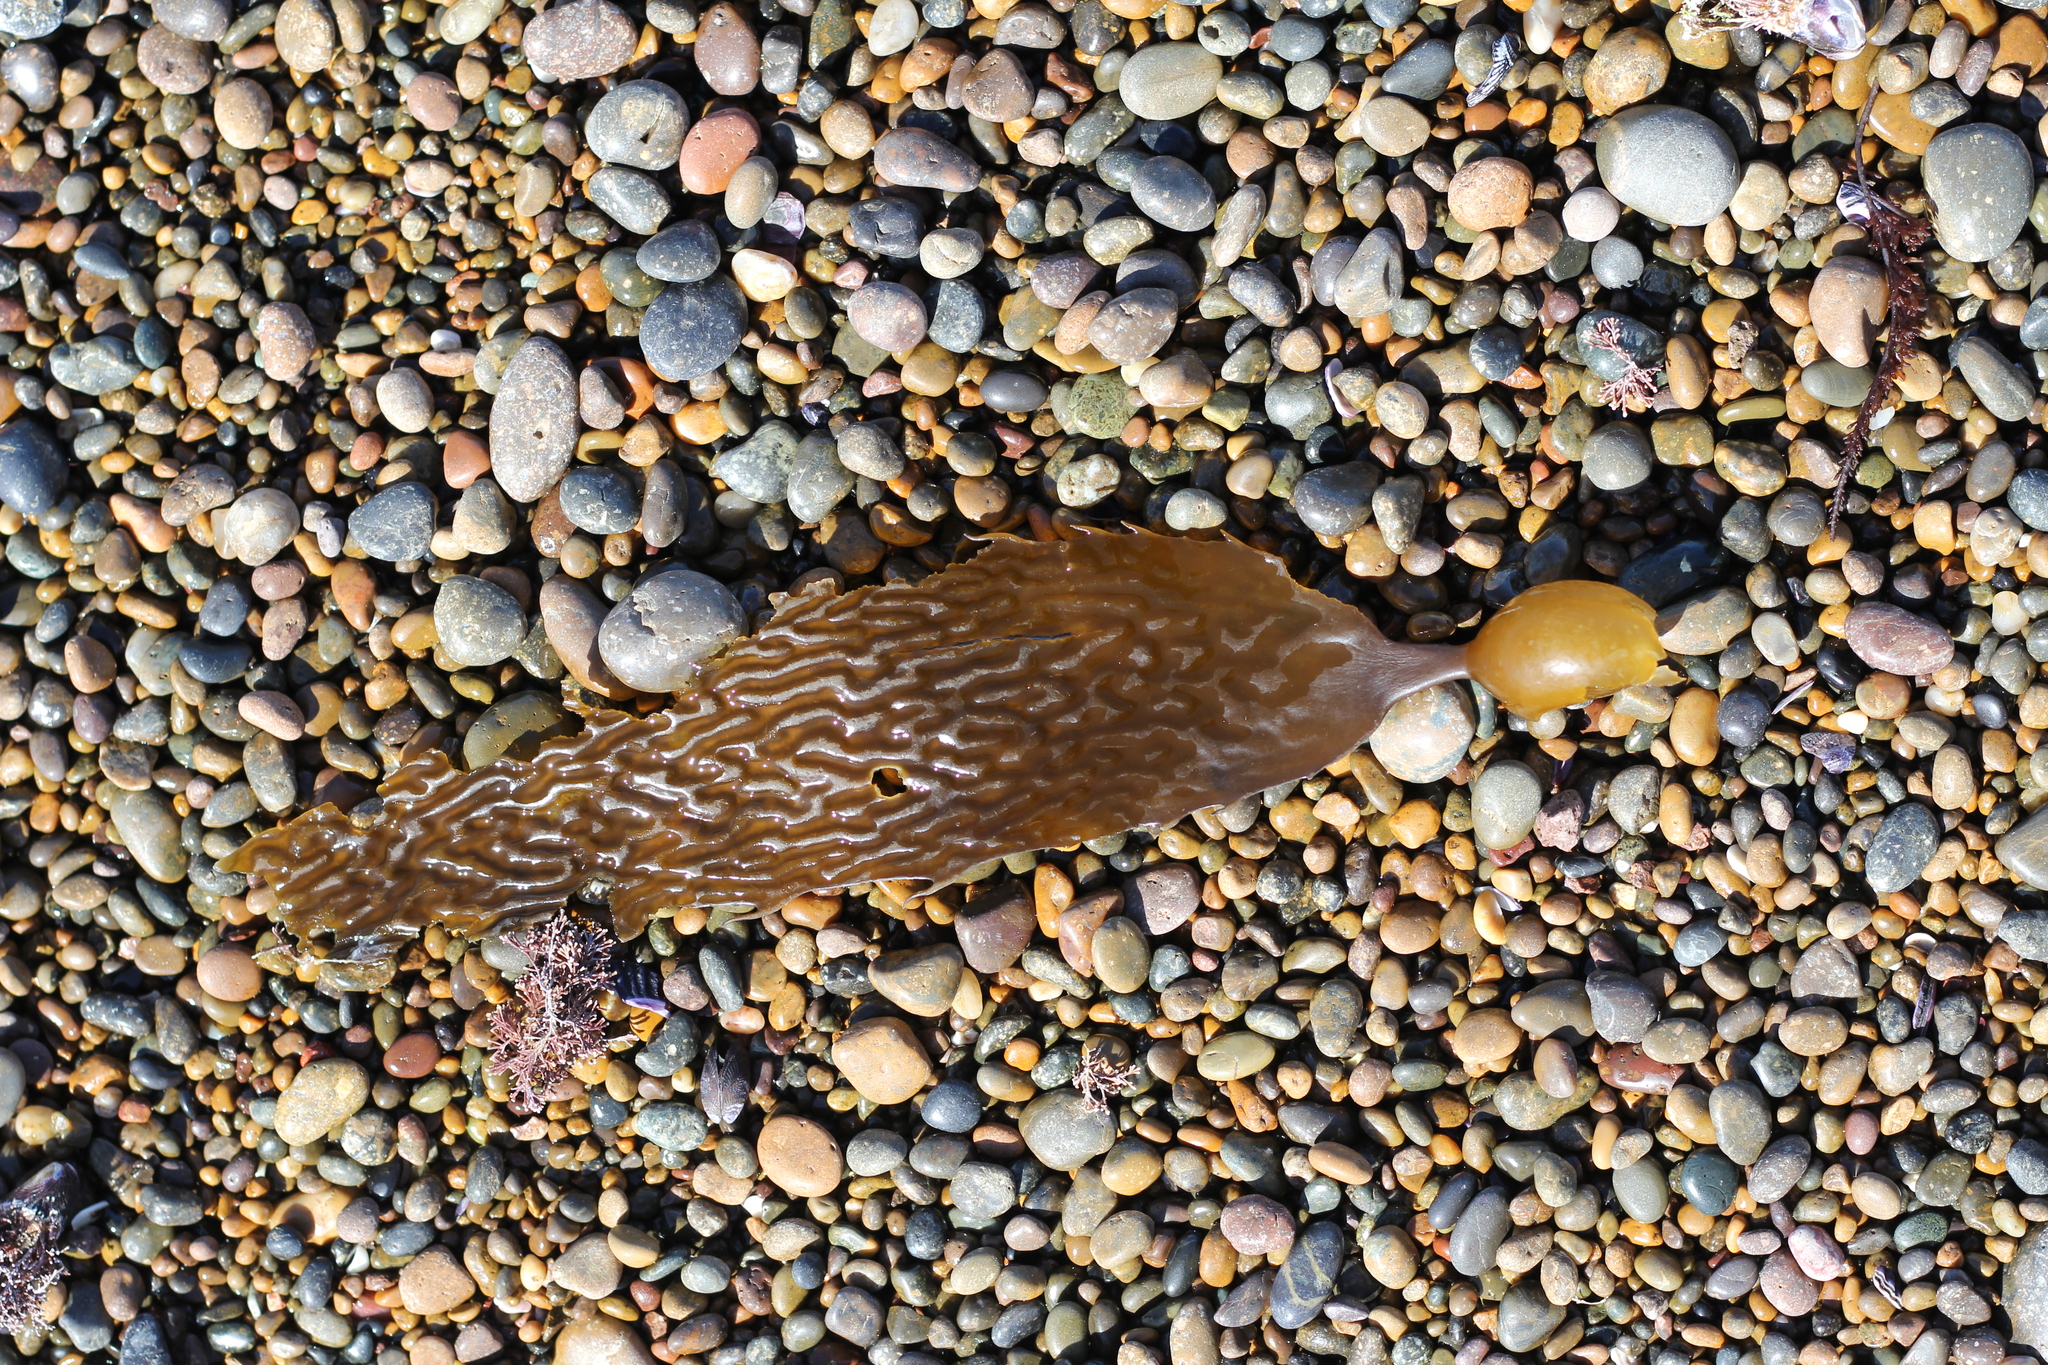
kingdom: Chromista
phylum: Ochrophyta
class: Phaeophyceae
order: Laminariales
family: Laminariaceae
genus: Macrocystis
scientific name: Macrocystis pyrifera
